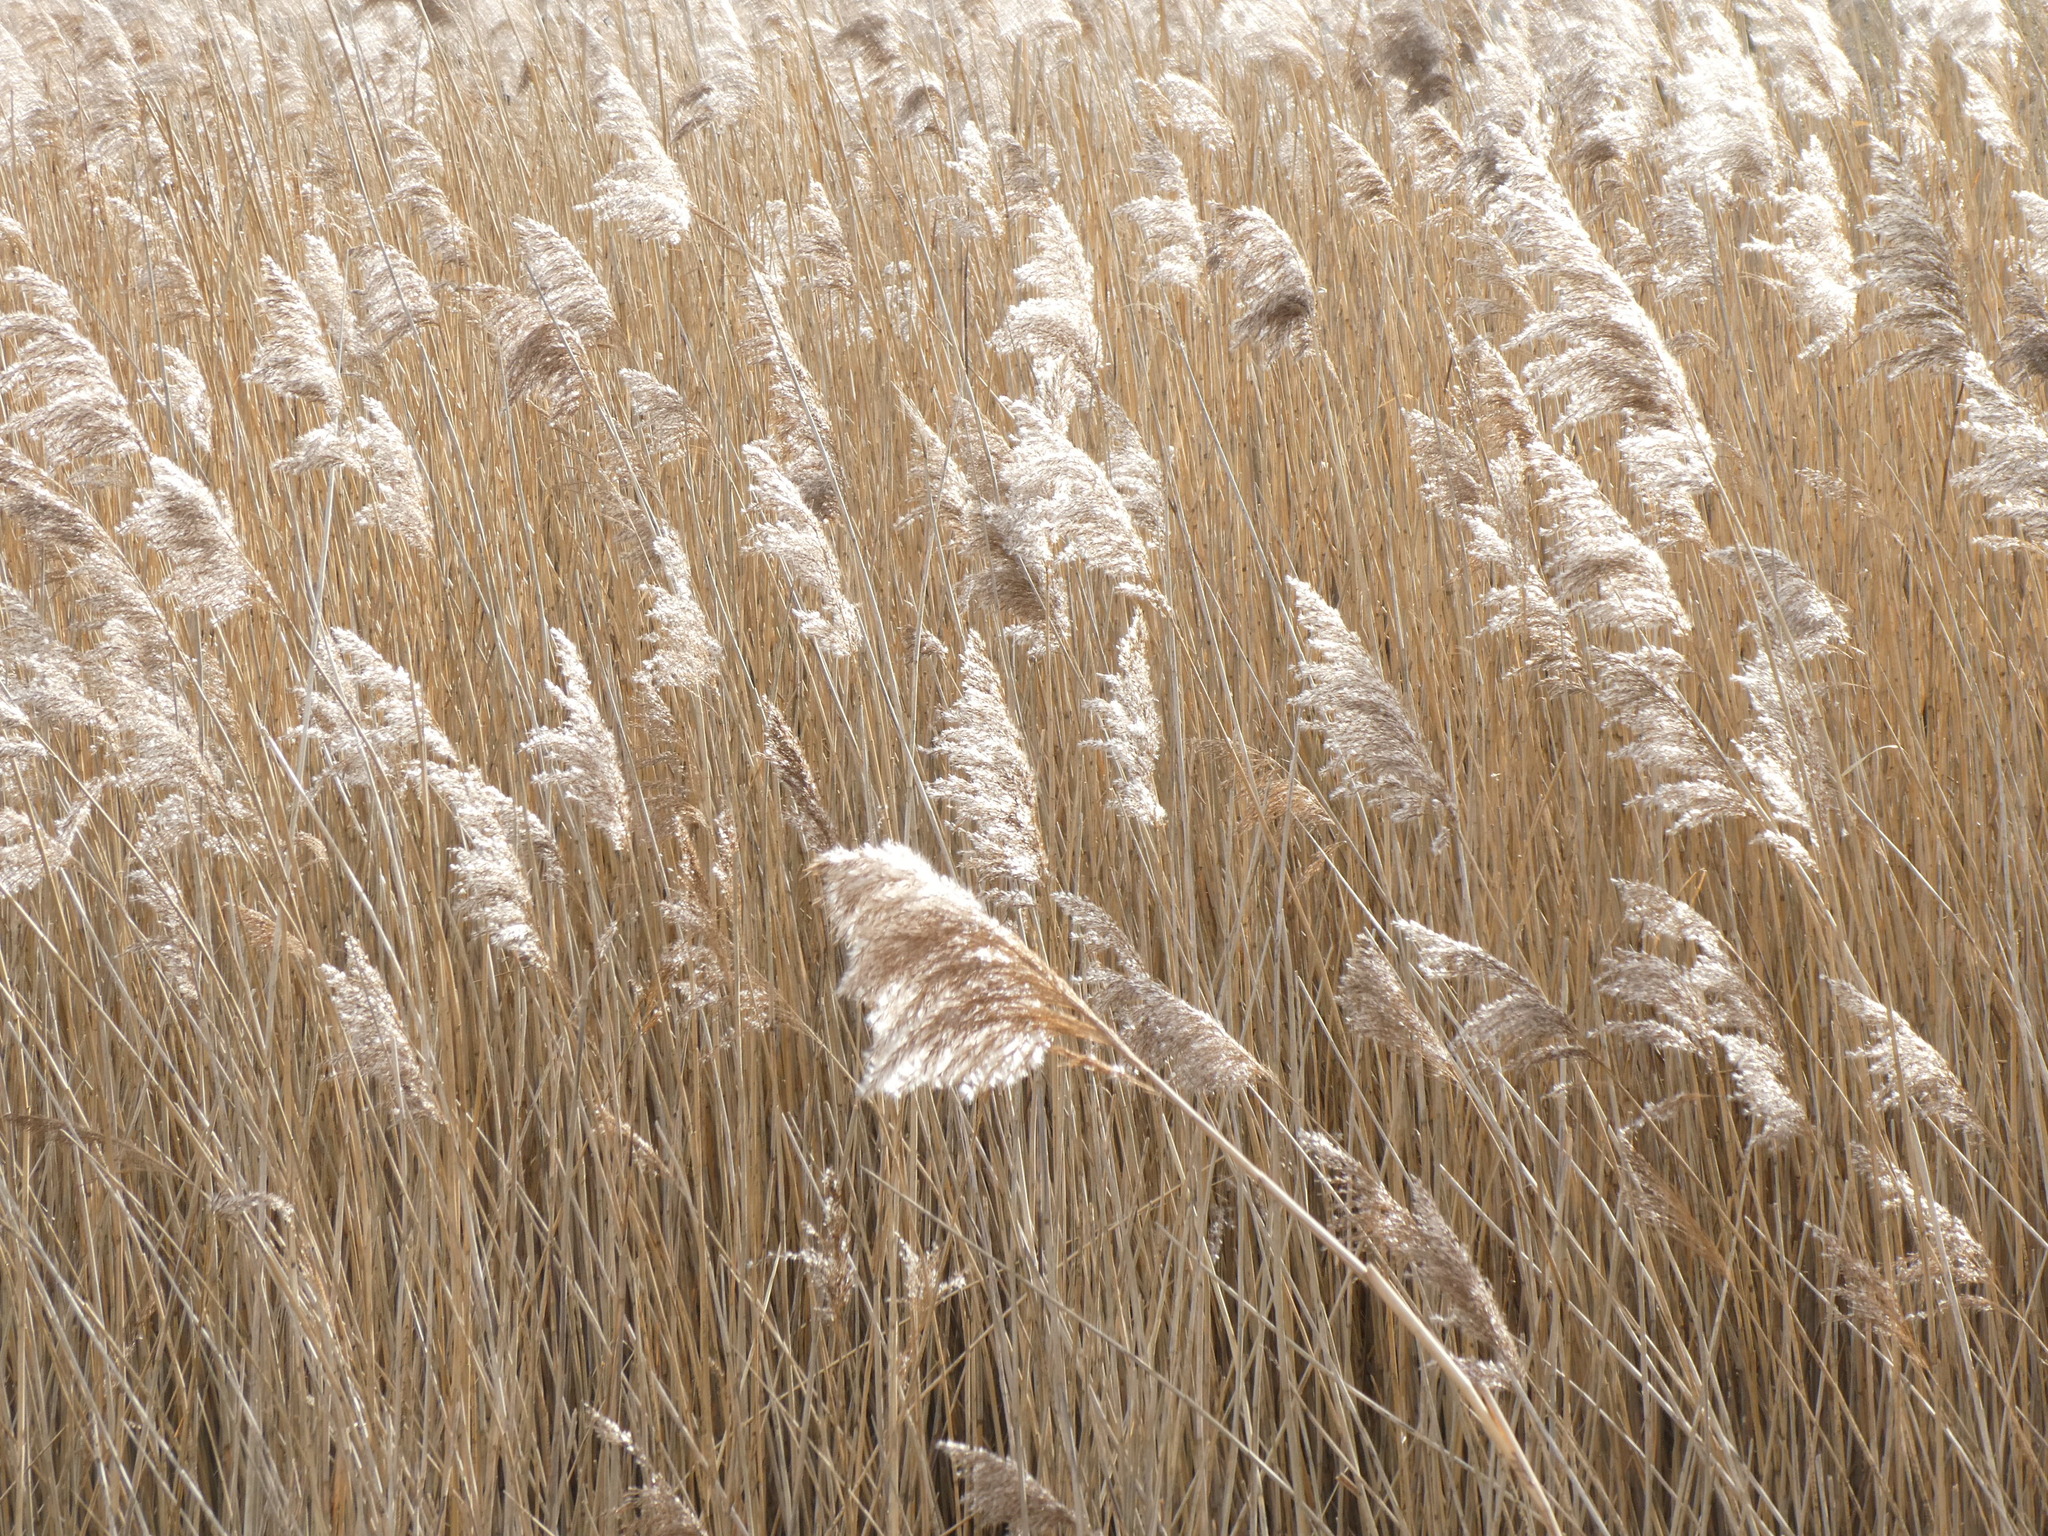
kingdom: Plantae
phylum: Tracheophyta
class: Liliopsida
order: Poales
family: Poaceae
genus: Phragmites
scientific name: Phragmites australis
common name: Common reed
